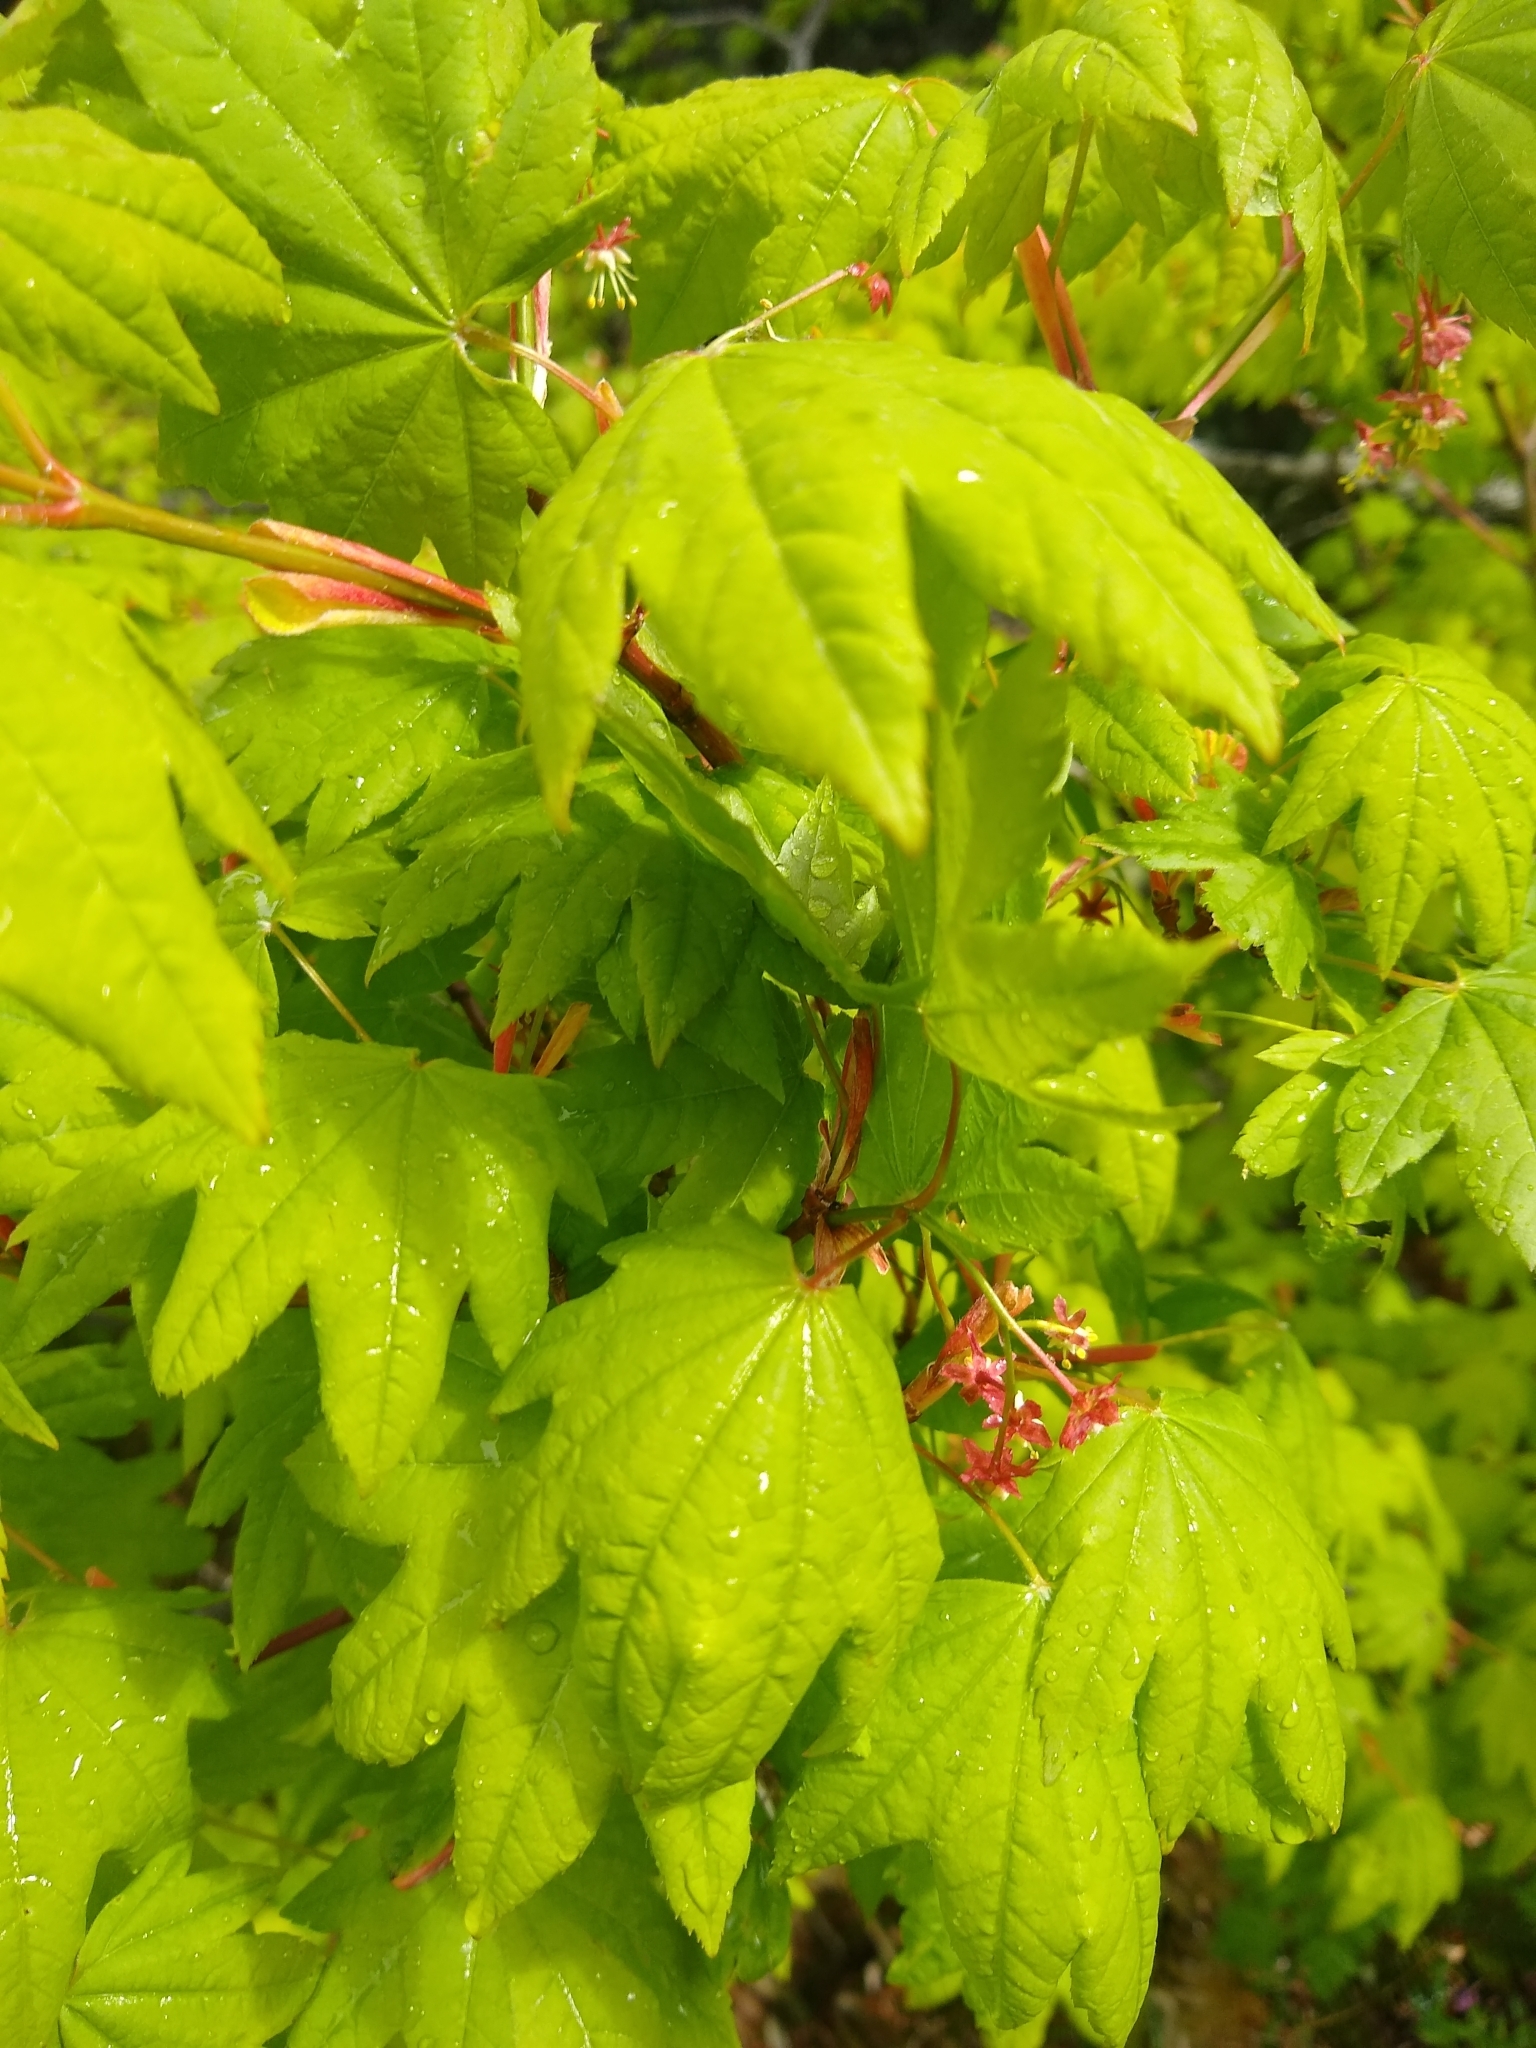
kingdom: Plantae
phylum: Tracheophyta
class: Magnoliopsida
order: Sapindales
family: Sapindaceae
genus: Acer
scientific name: Acer circinatum
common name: Vine maple
